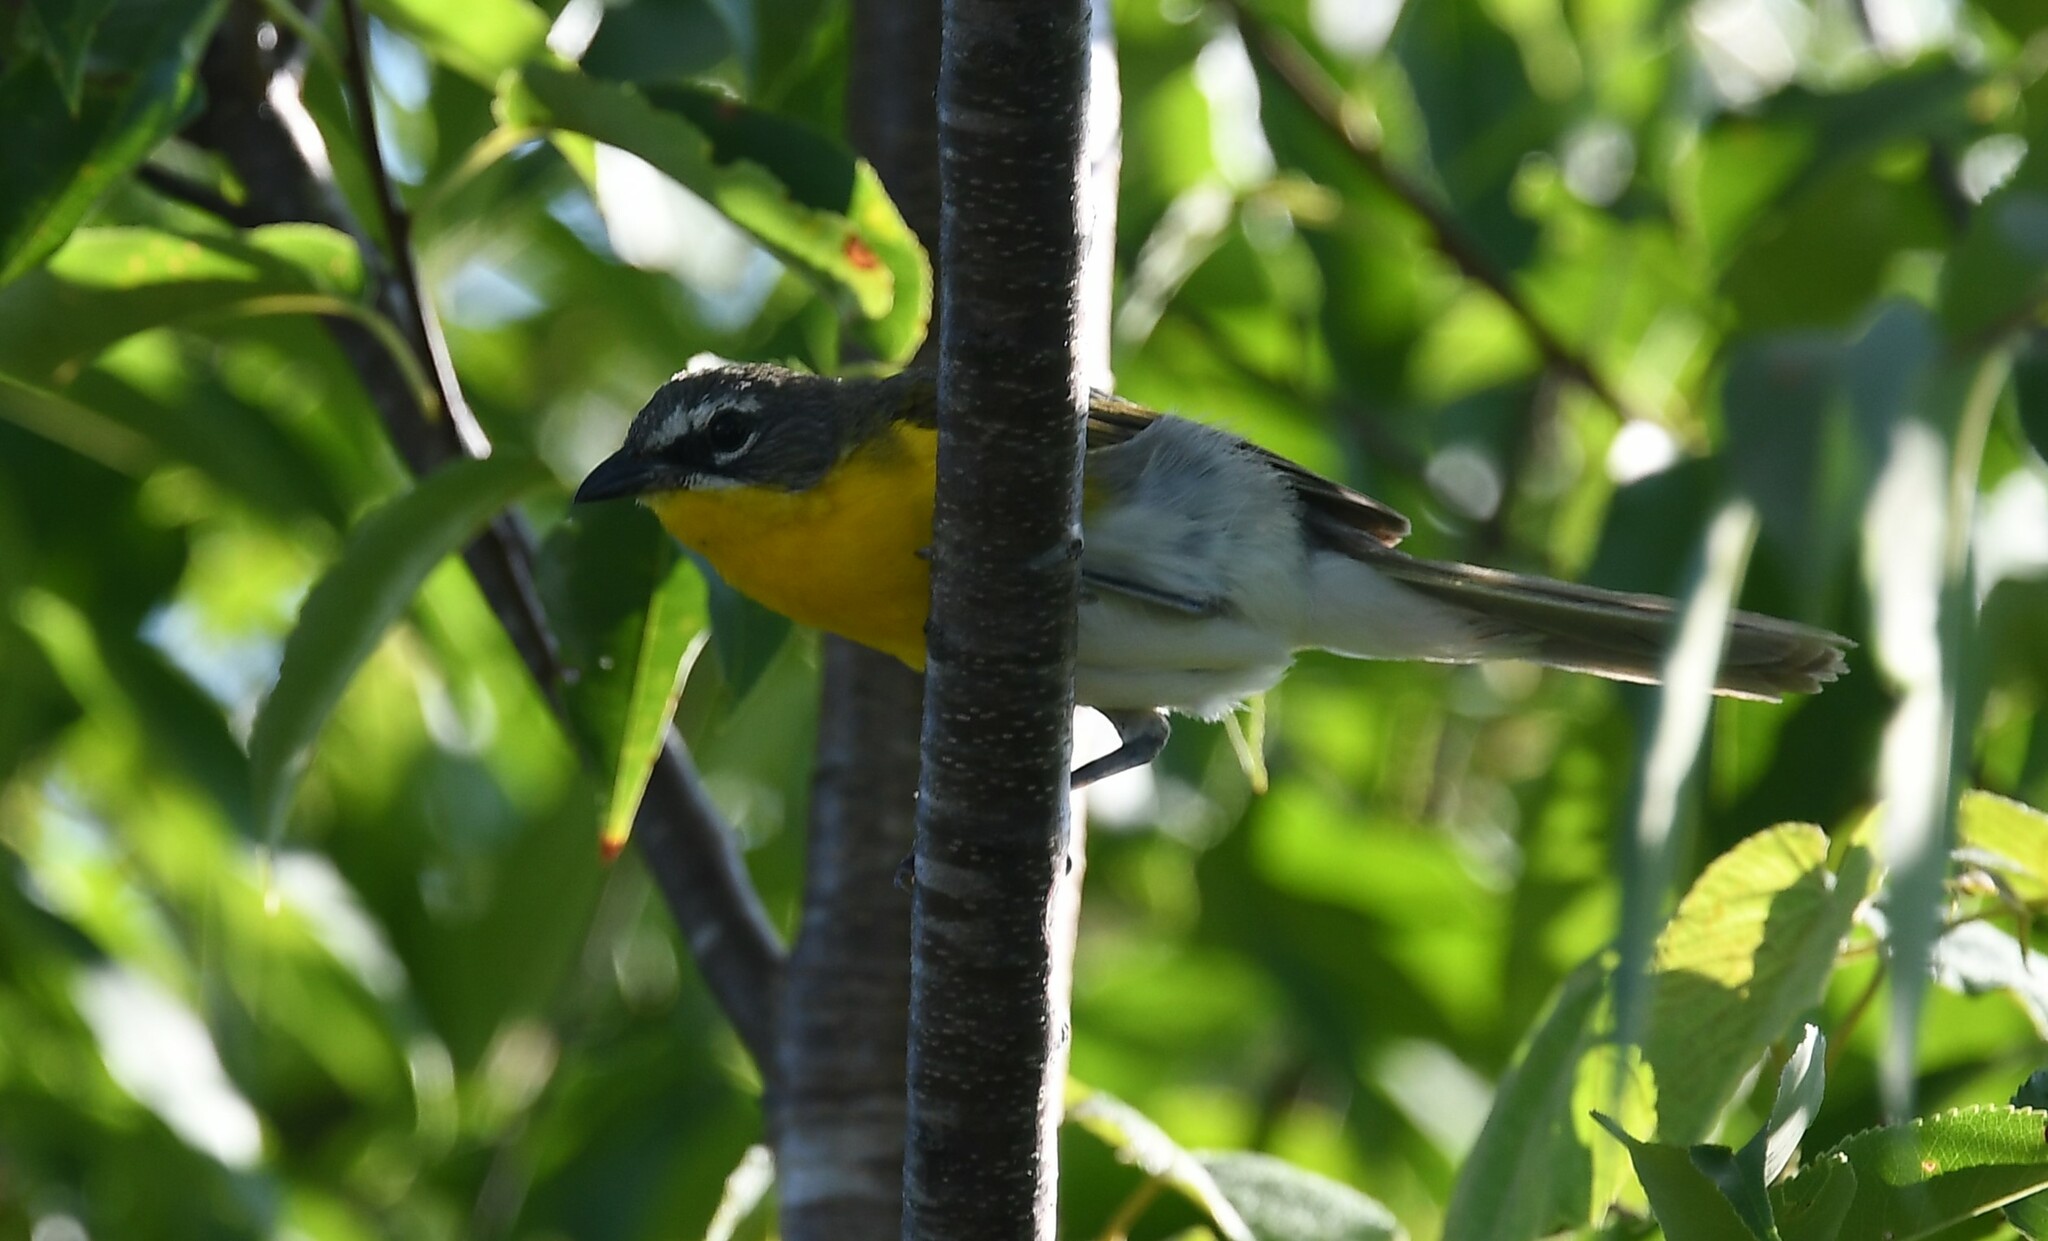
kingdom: Animalia
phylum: Chordata
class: Aves
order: Passeriformes
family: Parulidae
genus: Icteria
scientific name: Icteria virens
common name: Yellow-breasted chat
